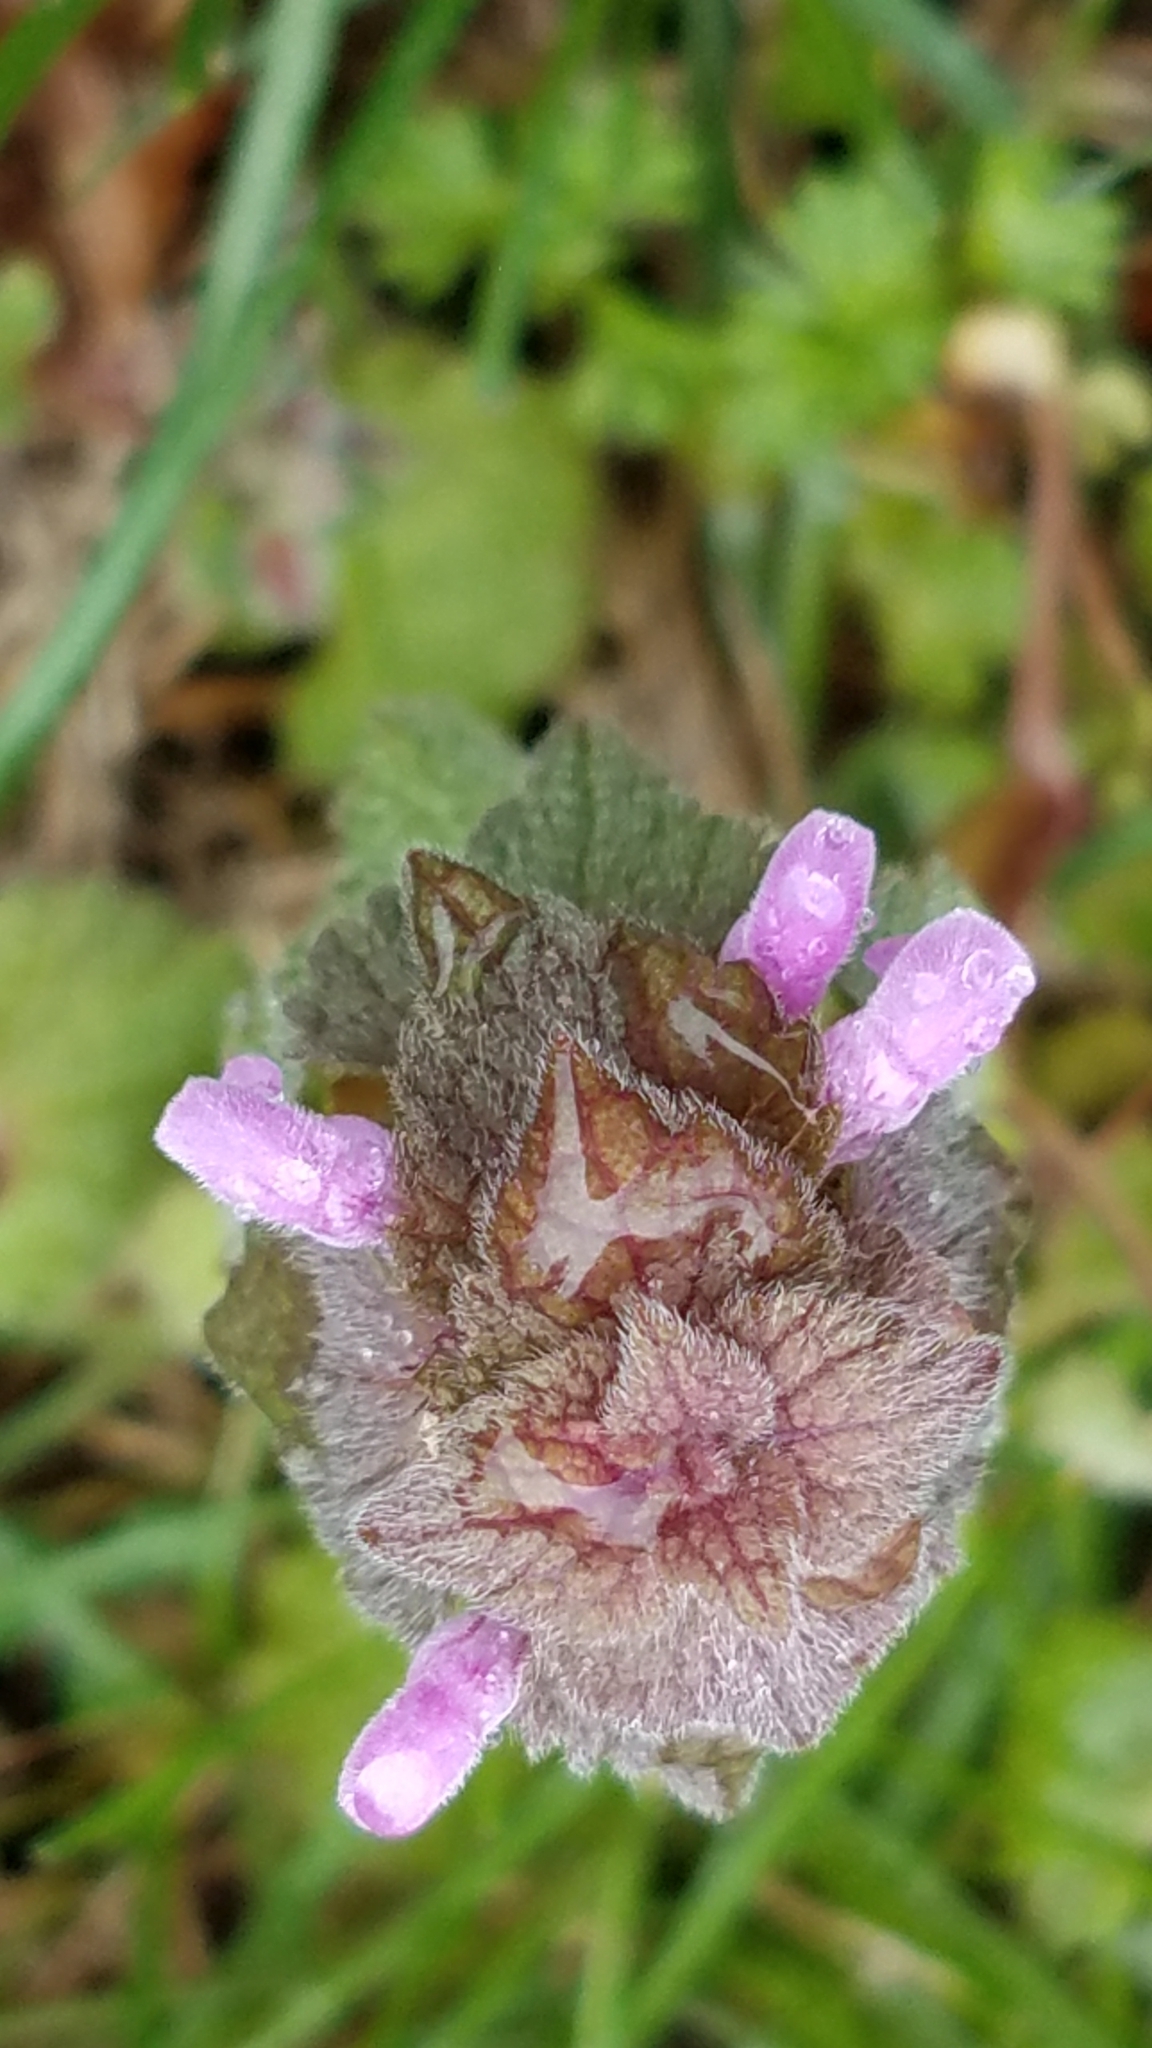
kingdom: Plantae
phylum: Tracheophyta
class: Magnoliopsida
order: Lamiales
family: Lamiaceae
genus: Lamium
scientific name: Lamium purpureum
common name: Red dead-nettle
